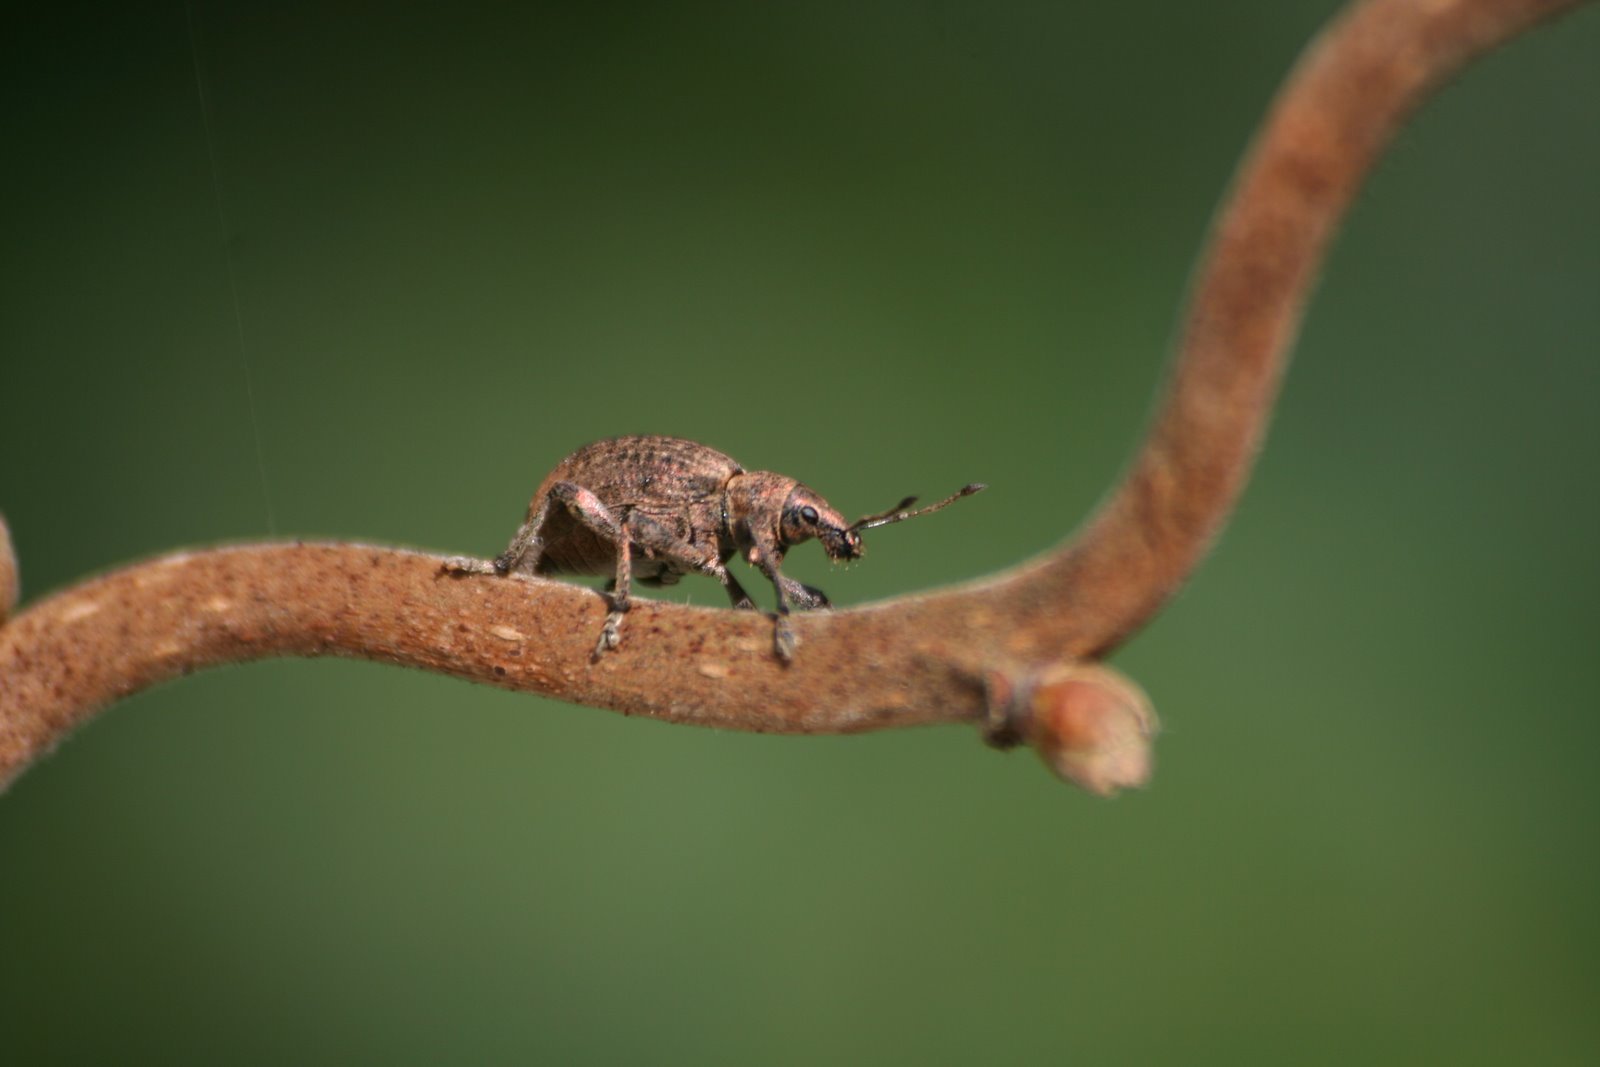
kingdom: Animalia
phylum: Arthropoda
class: Insecta
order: Coleoptera
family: Curculionidae
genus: Liophloeus
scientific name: Liophloeus tessulatus
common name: Weevil
